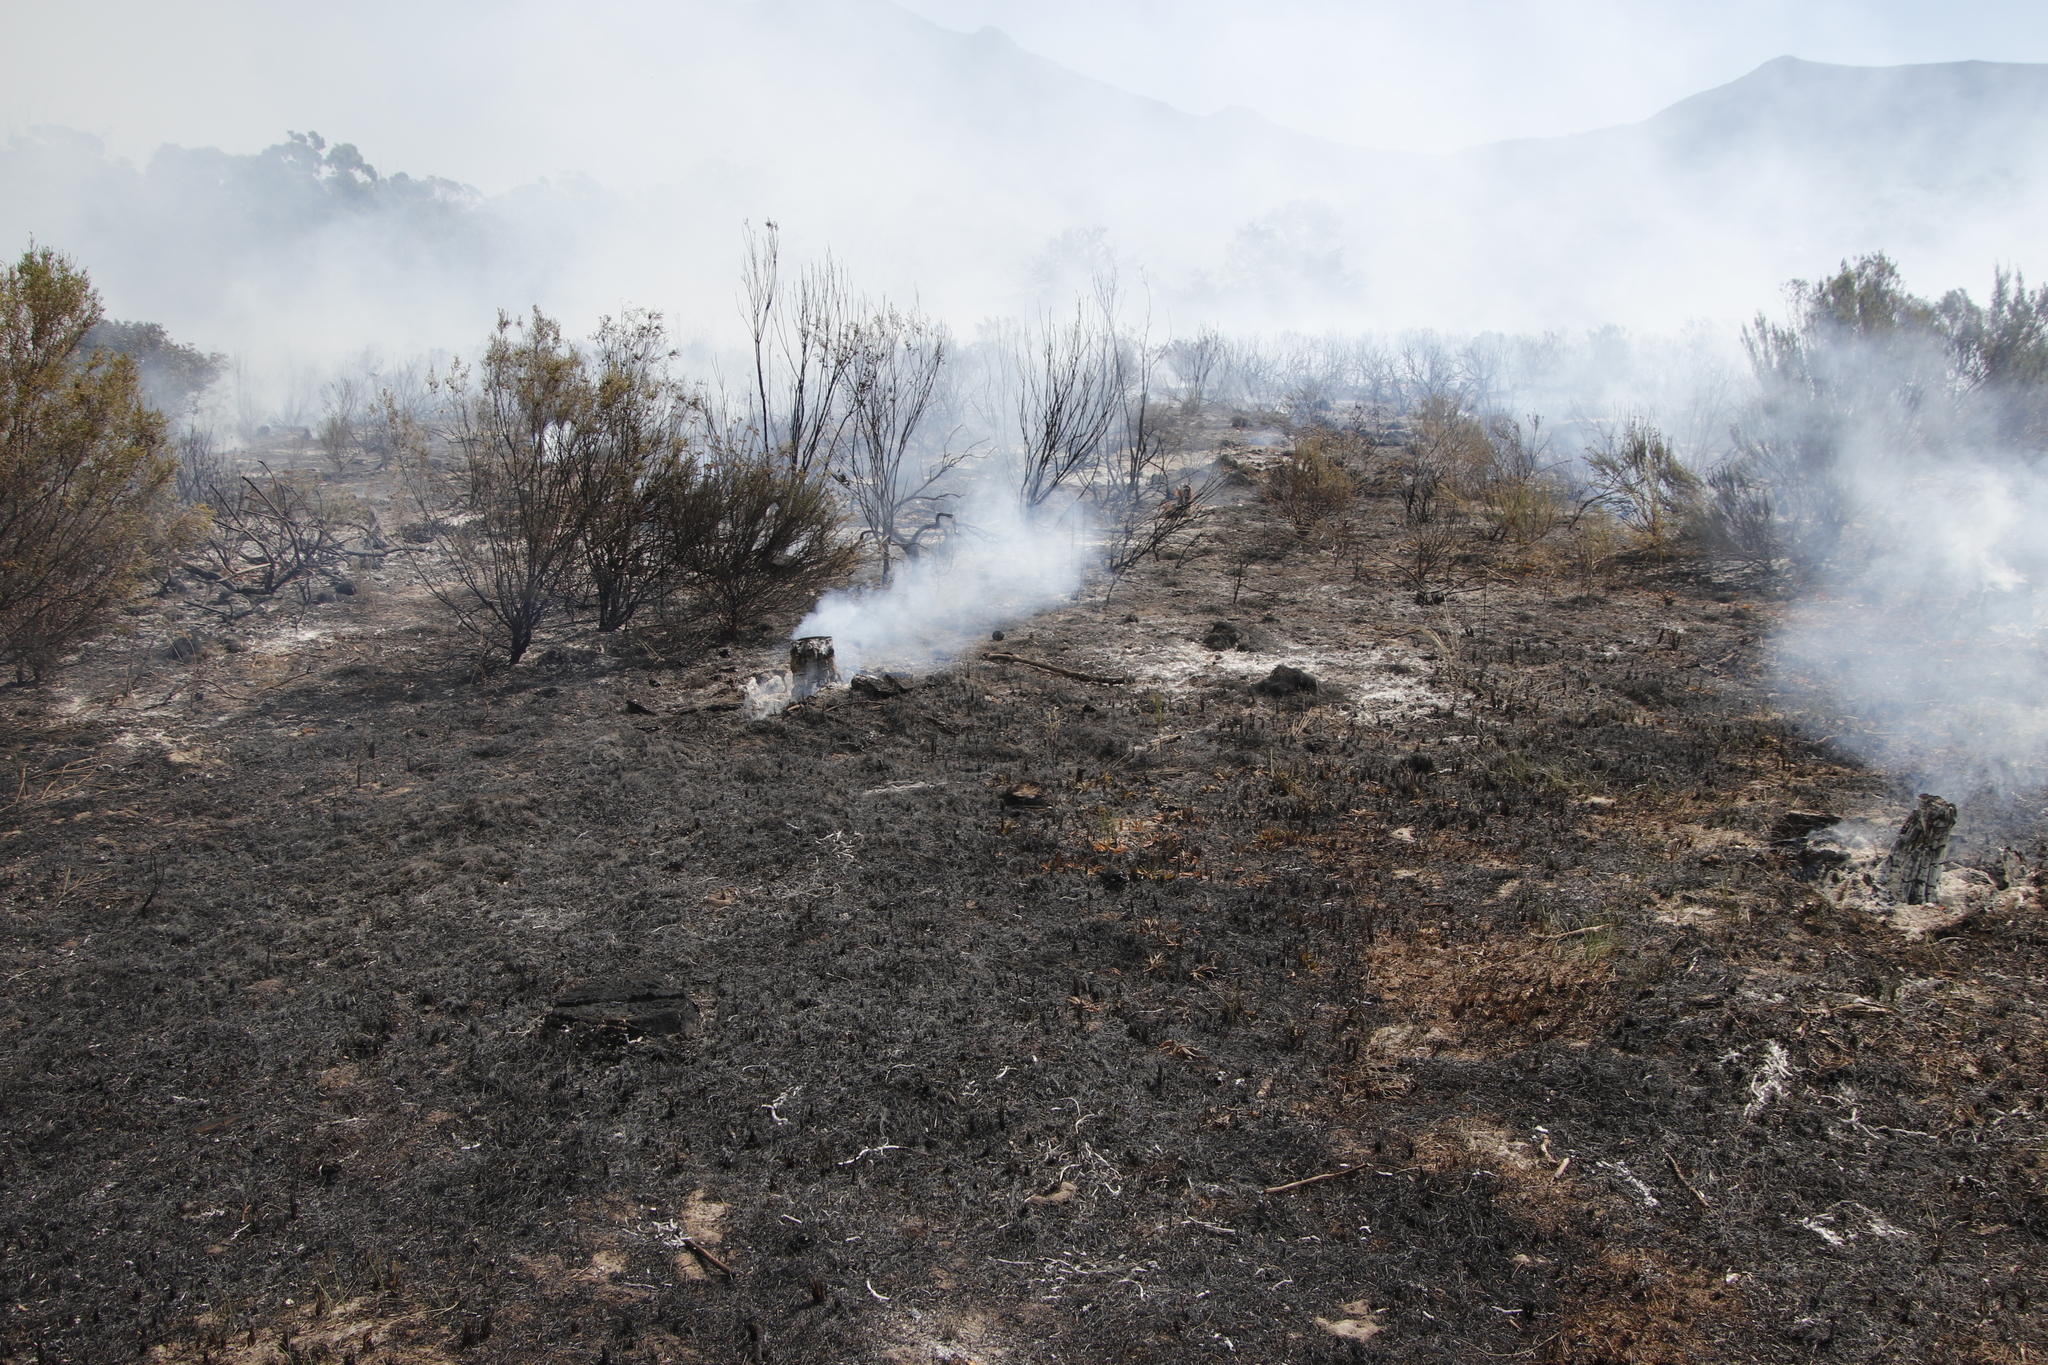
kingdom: Plantae
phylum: Tracheophyta
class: Magnoliopsida
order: Malvales
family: Thymelaeaceae
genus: Passerina
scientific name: Passerina corymbosa
